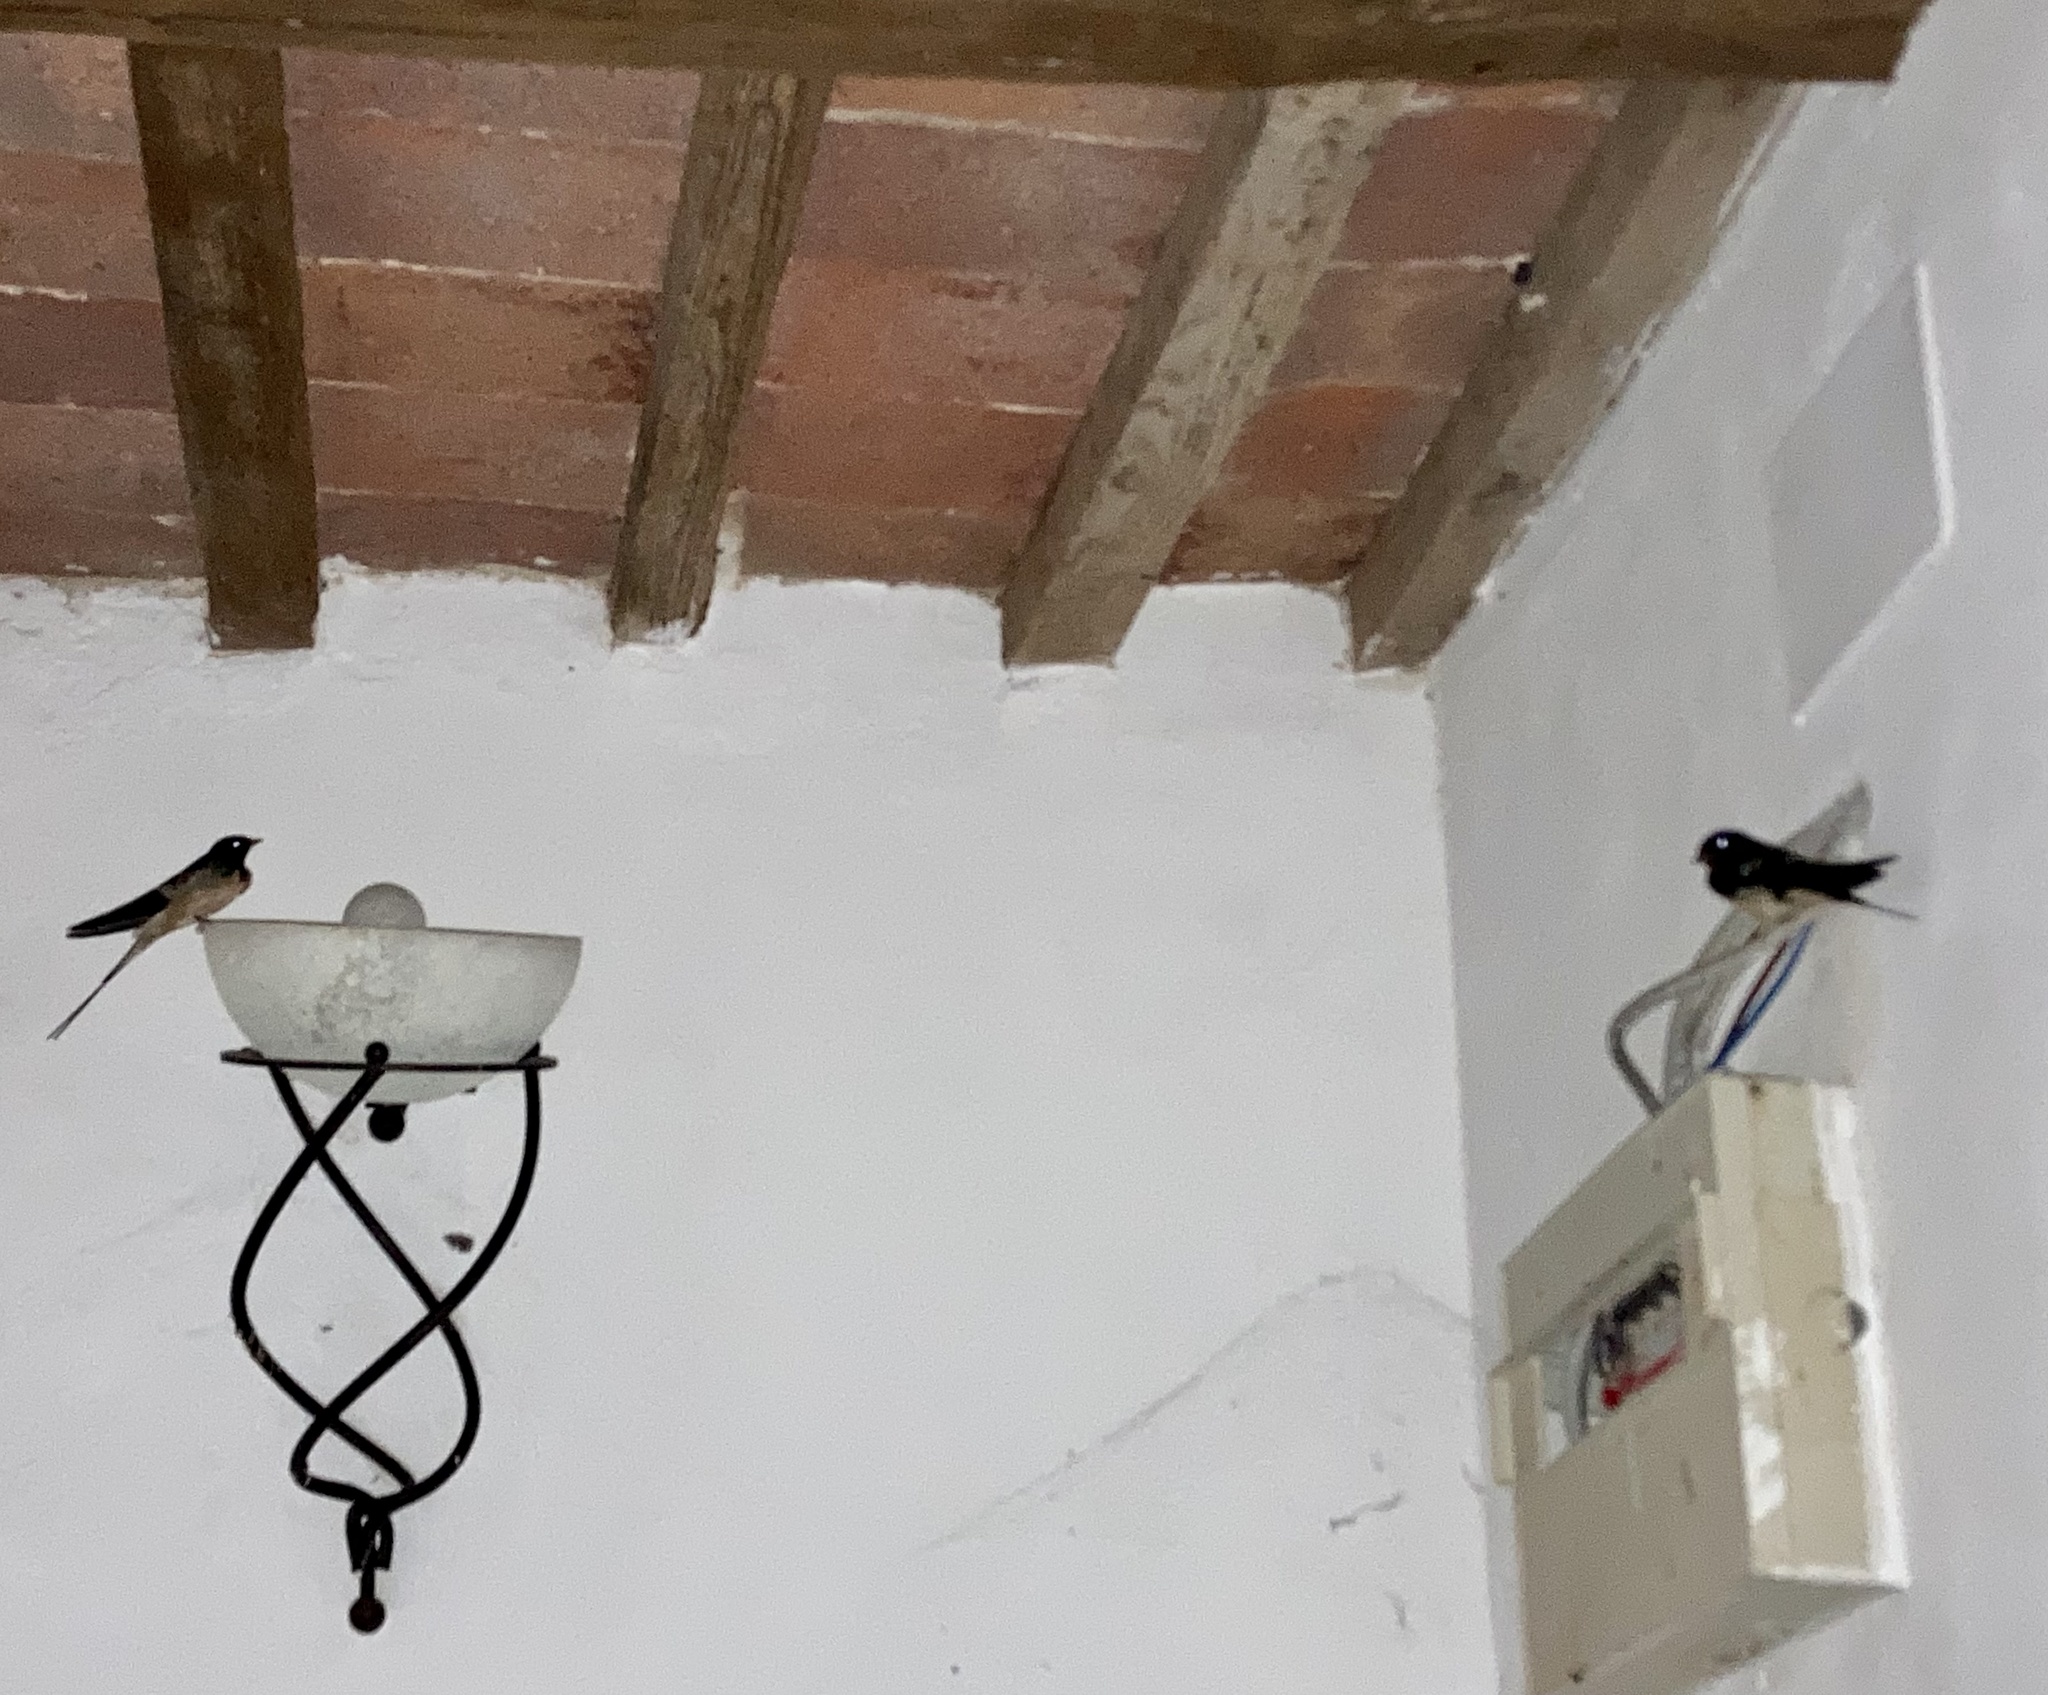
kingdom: Animalia
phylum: Chordata
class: Aves
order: Passeriformes
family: Hirundinidae
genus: Hirundo
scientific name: Hirundo rustica
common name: Barn swallow
